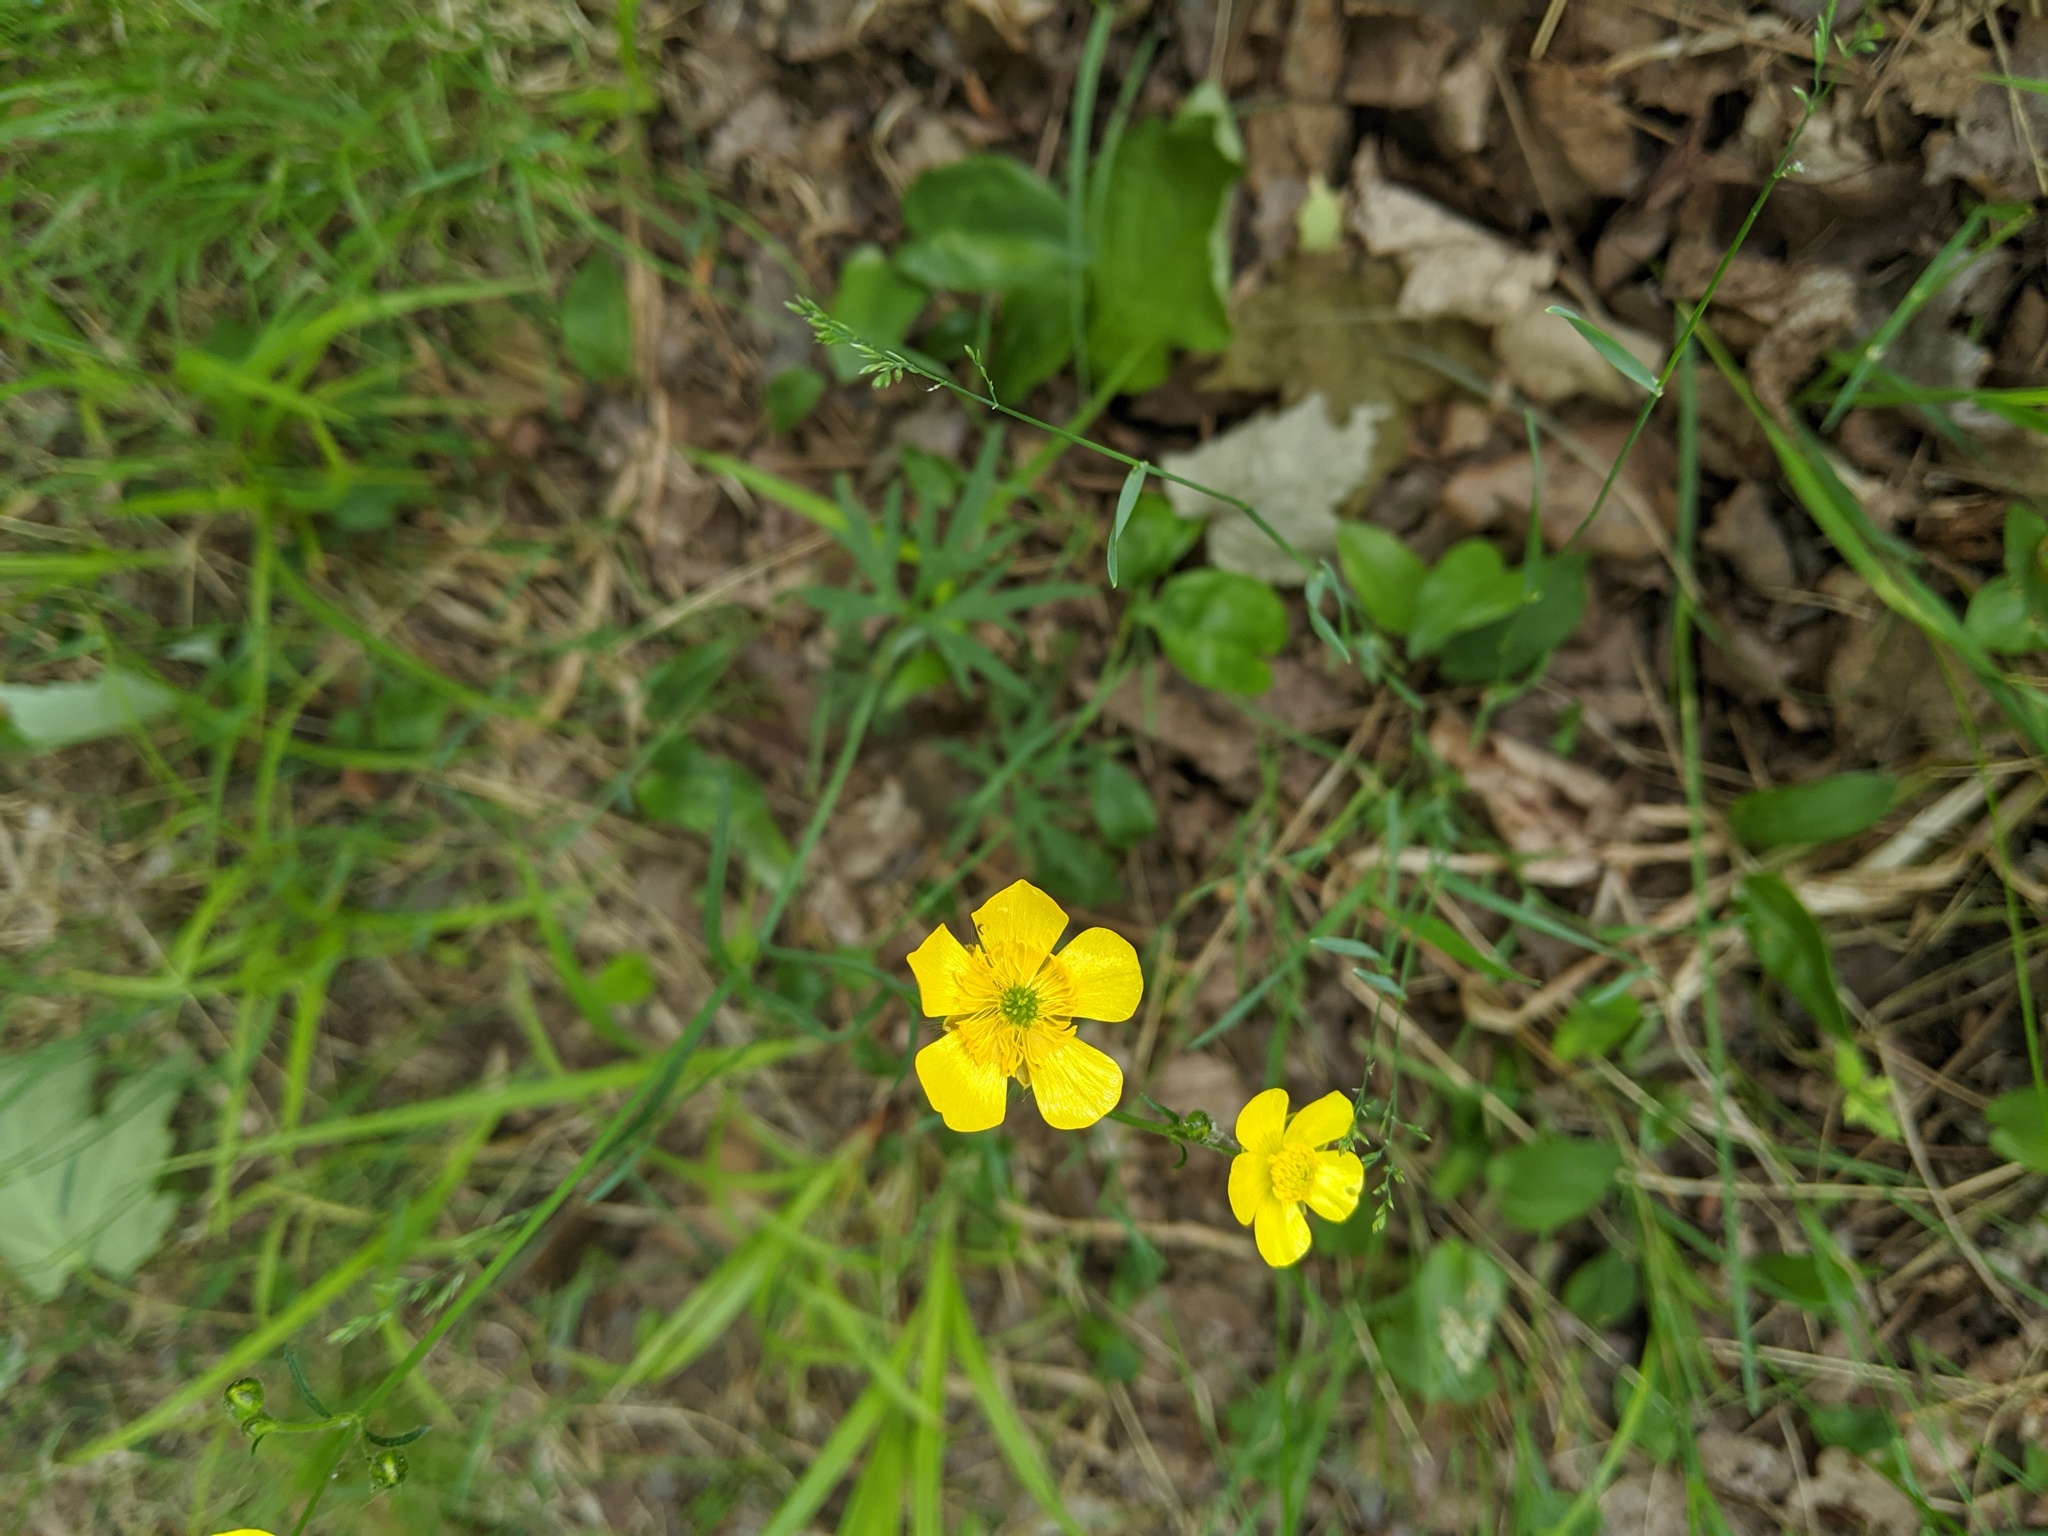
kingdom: Plantae
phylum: Tracheophyta
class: Magnoliopsida
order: Ranunculales
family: Ranunculaceae
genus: Ranunculus
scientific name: Ranunculus acris
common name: Meadow buttercup
